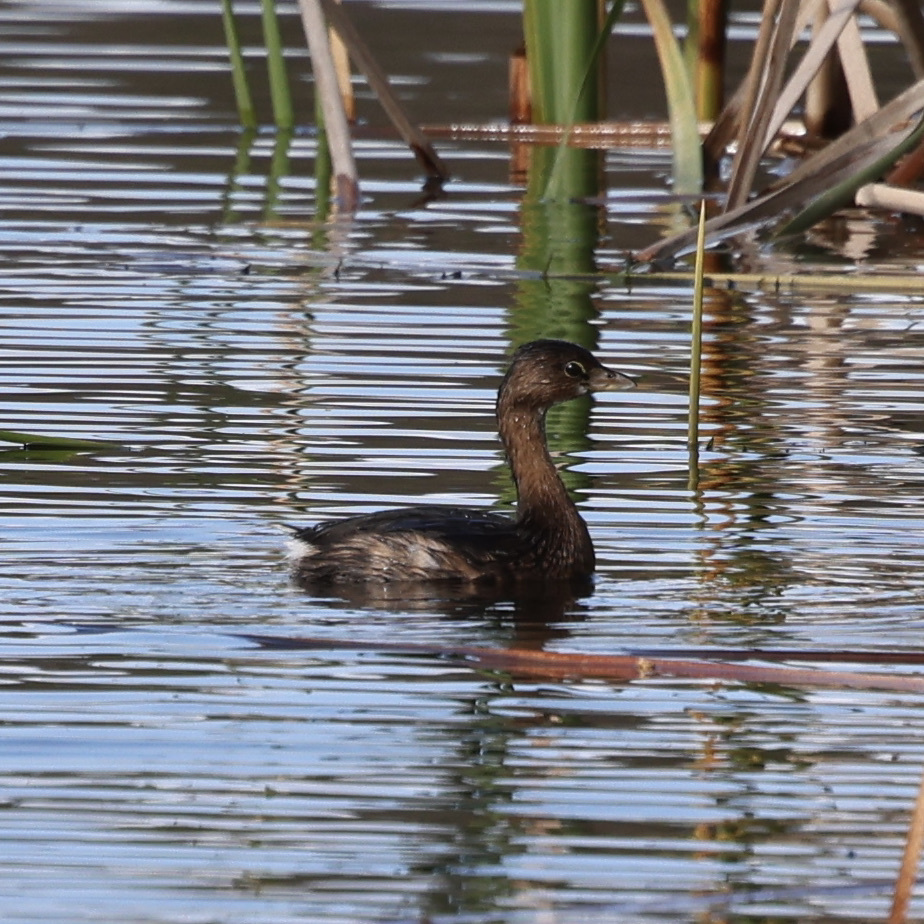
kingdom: Animalia
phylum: Chordata
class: Aves
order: Podicipediformes
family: Podicipedidae
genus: Podilymbus
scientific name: Podilymbus podiceps
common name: Pied-billed grebe
